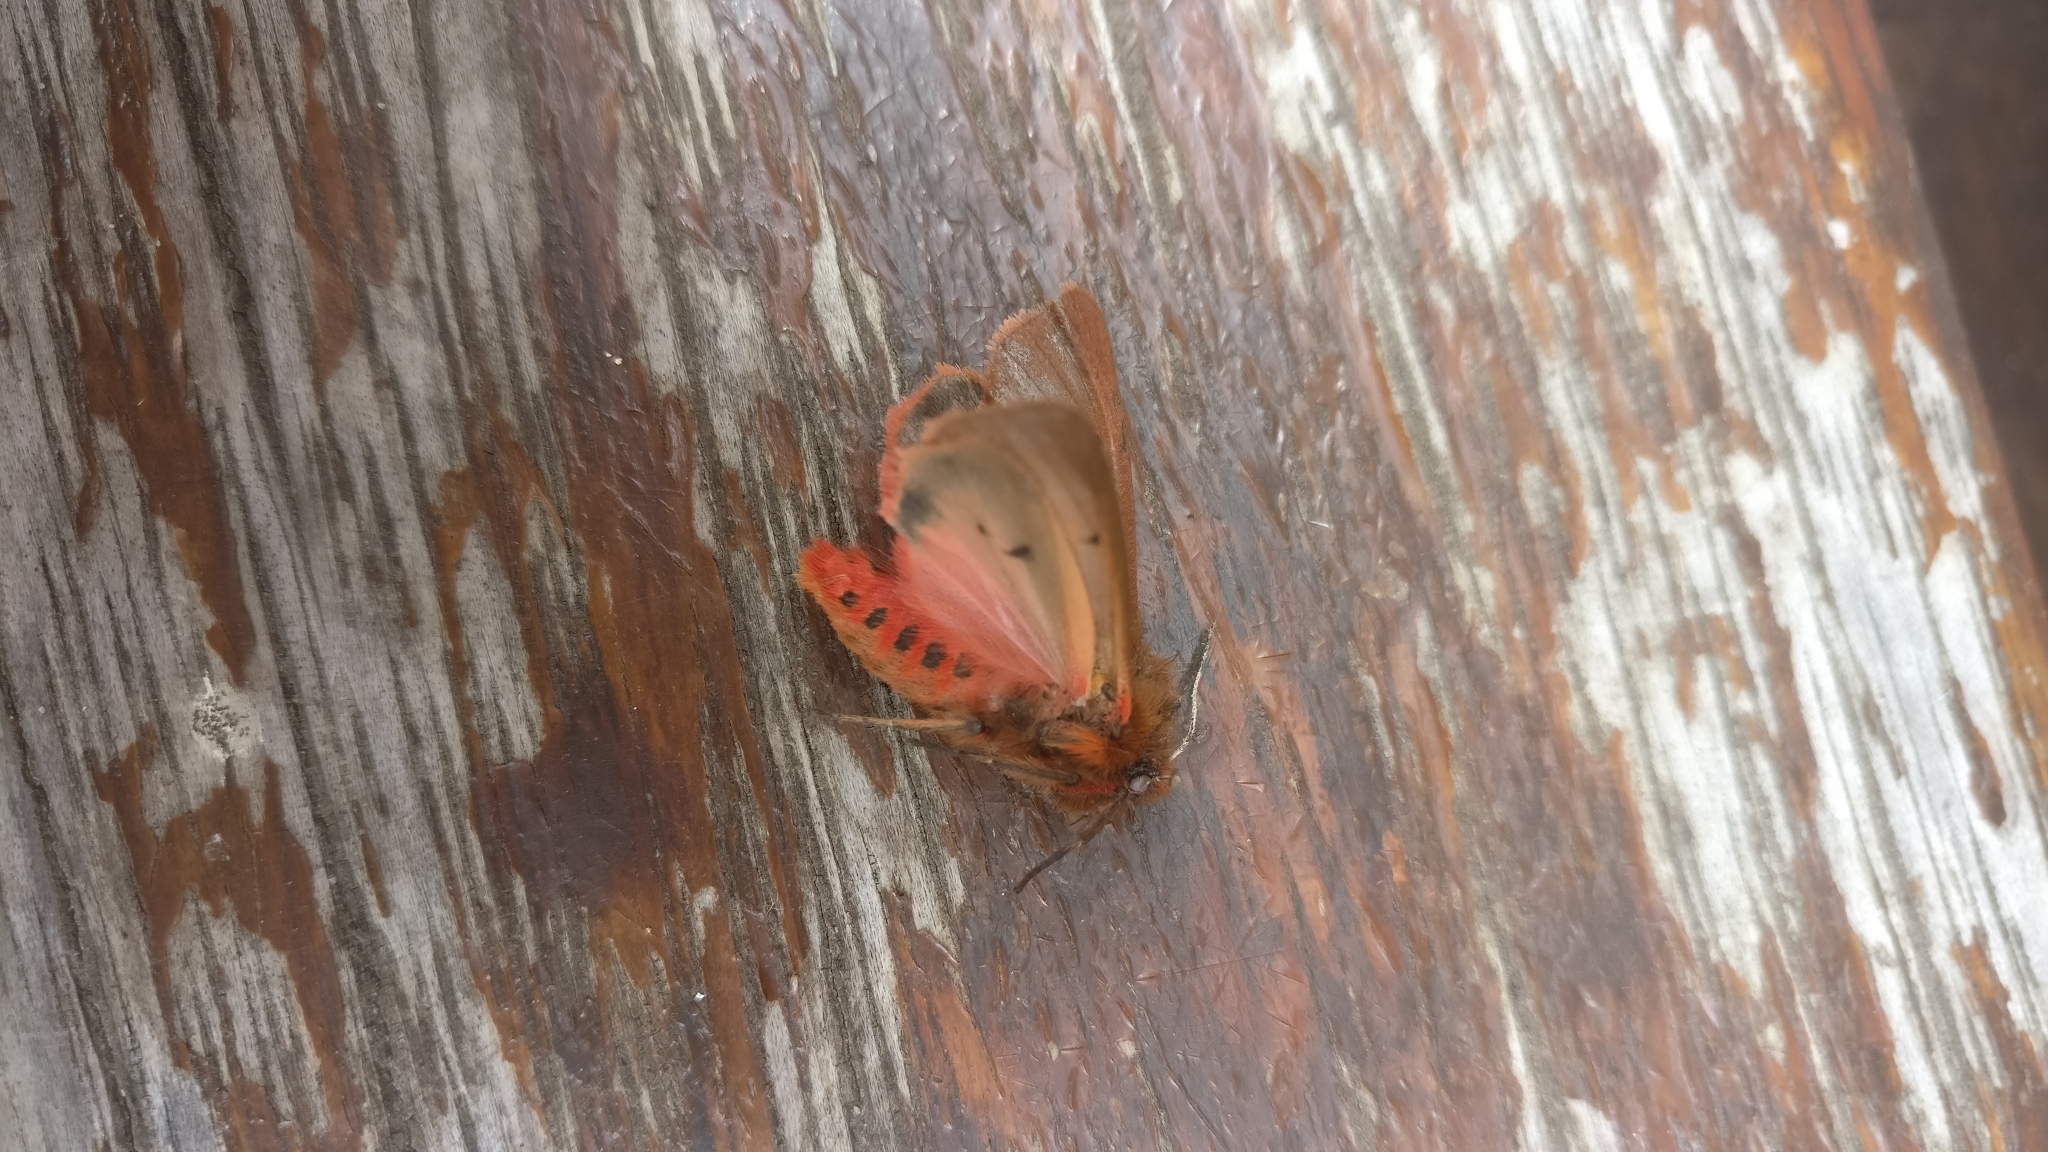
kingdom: Animalia
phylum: Arthropoda
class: Insecta
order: Lepidoptera
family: Erebidae
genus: Phragmatobia
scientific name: Phragmatobia fuliginosa
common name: Ruby tiger
